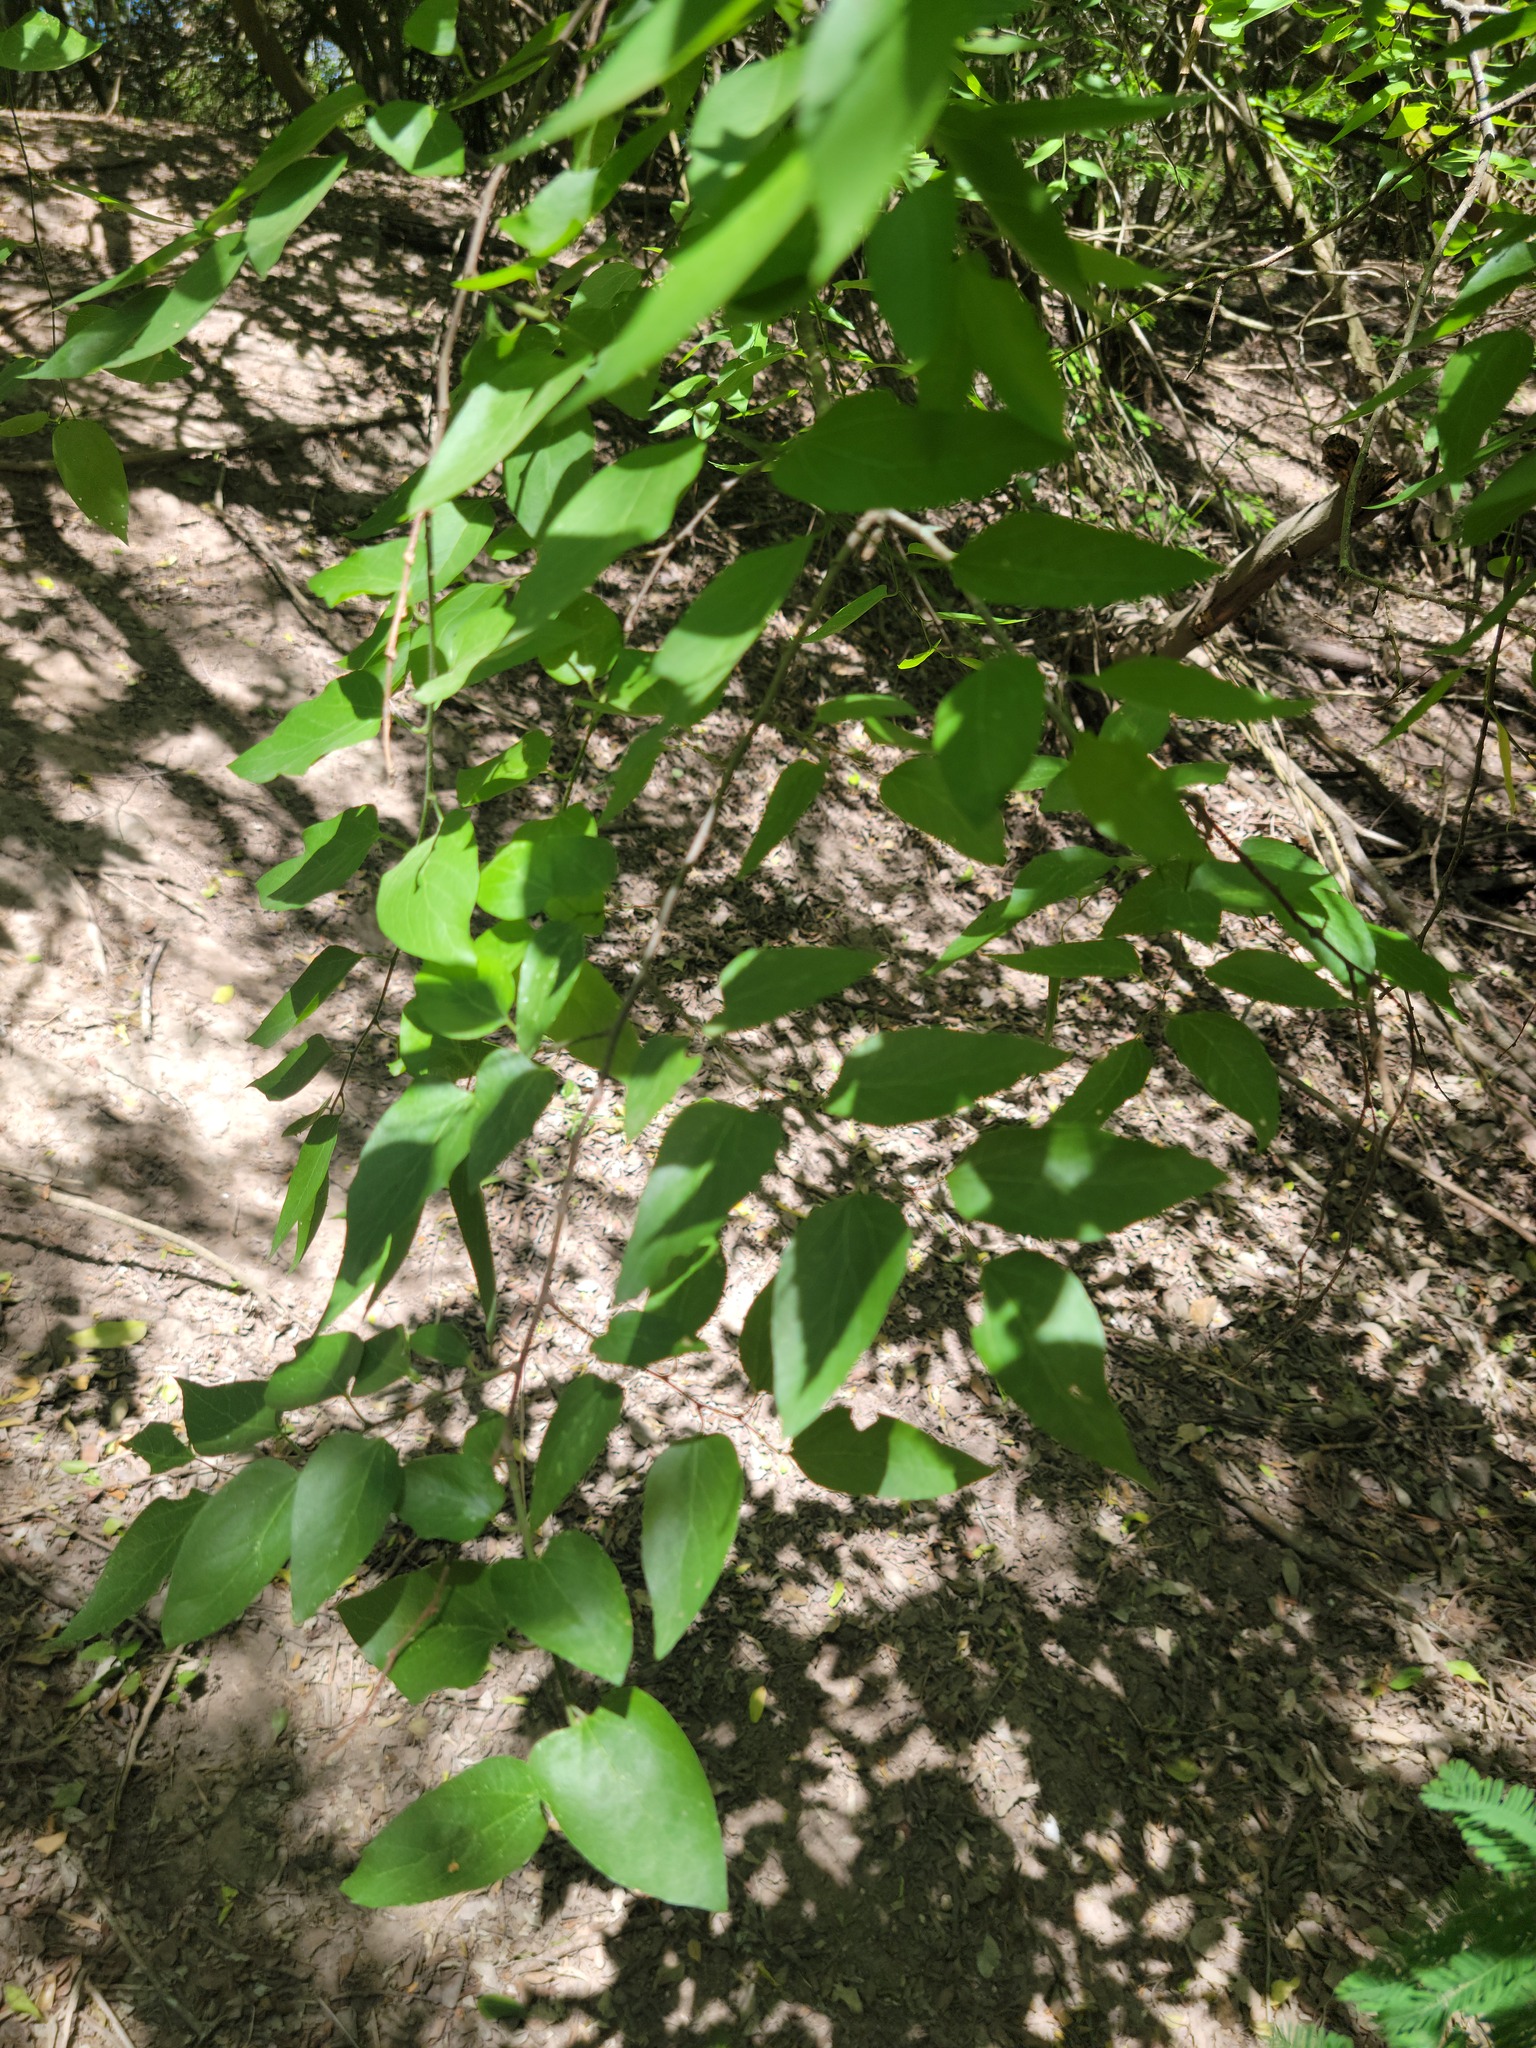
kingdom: Plantae
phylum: Tracheophyta
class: Magnoliopsida
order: Rosales
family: Cannabaceae
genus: Celtis
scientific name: Celtis laevigata
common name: Sugarberry
